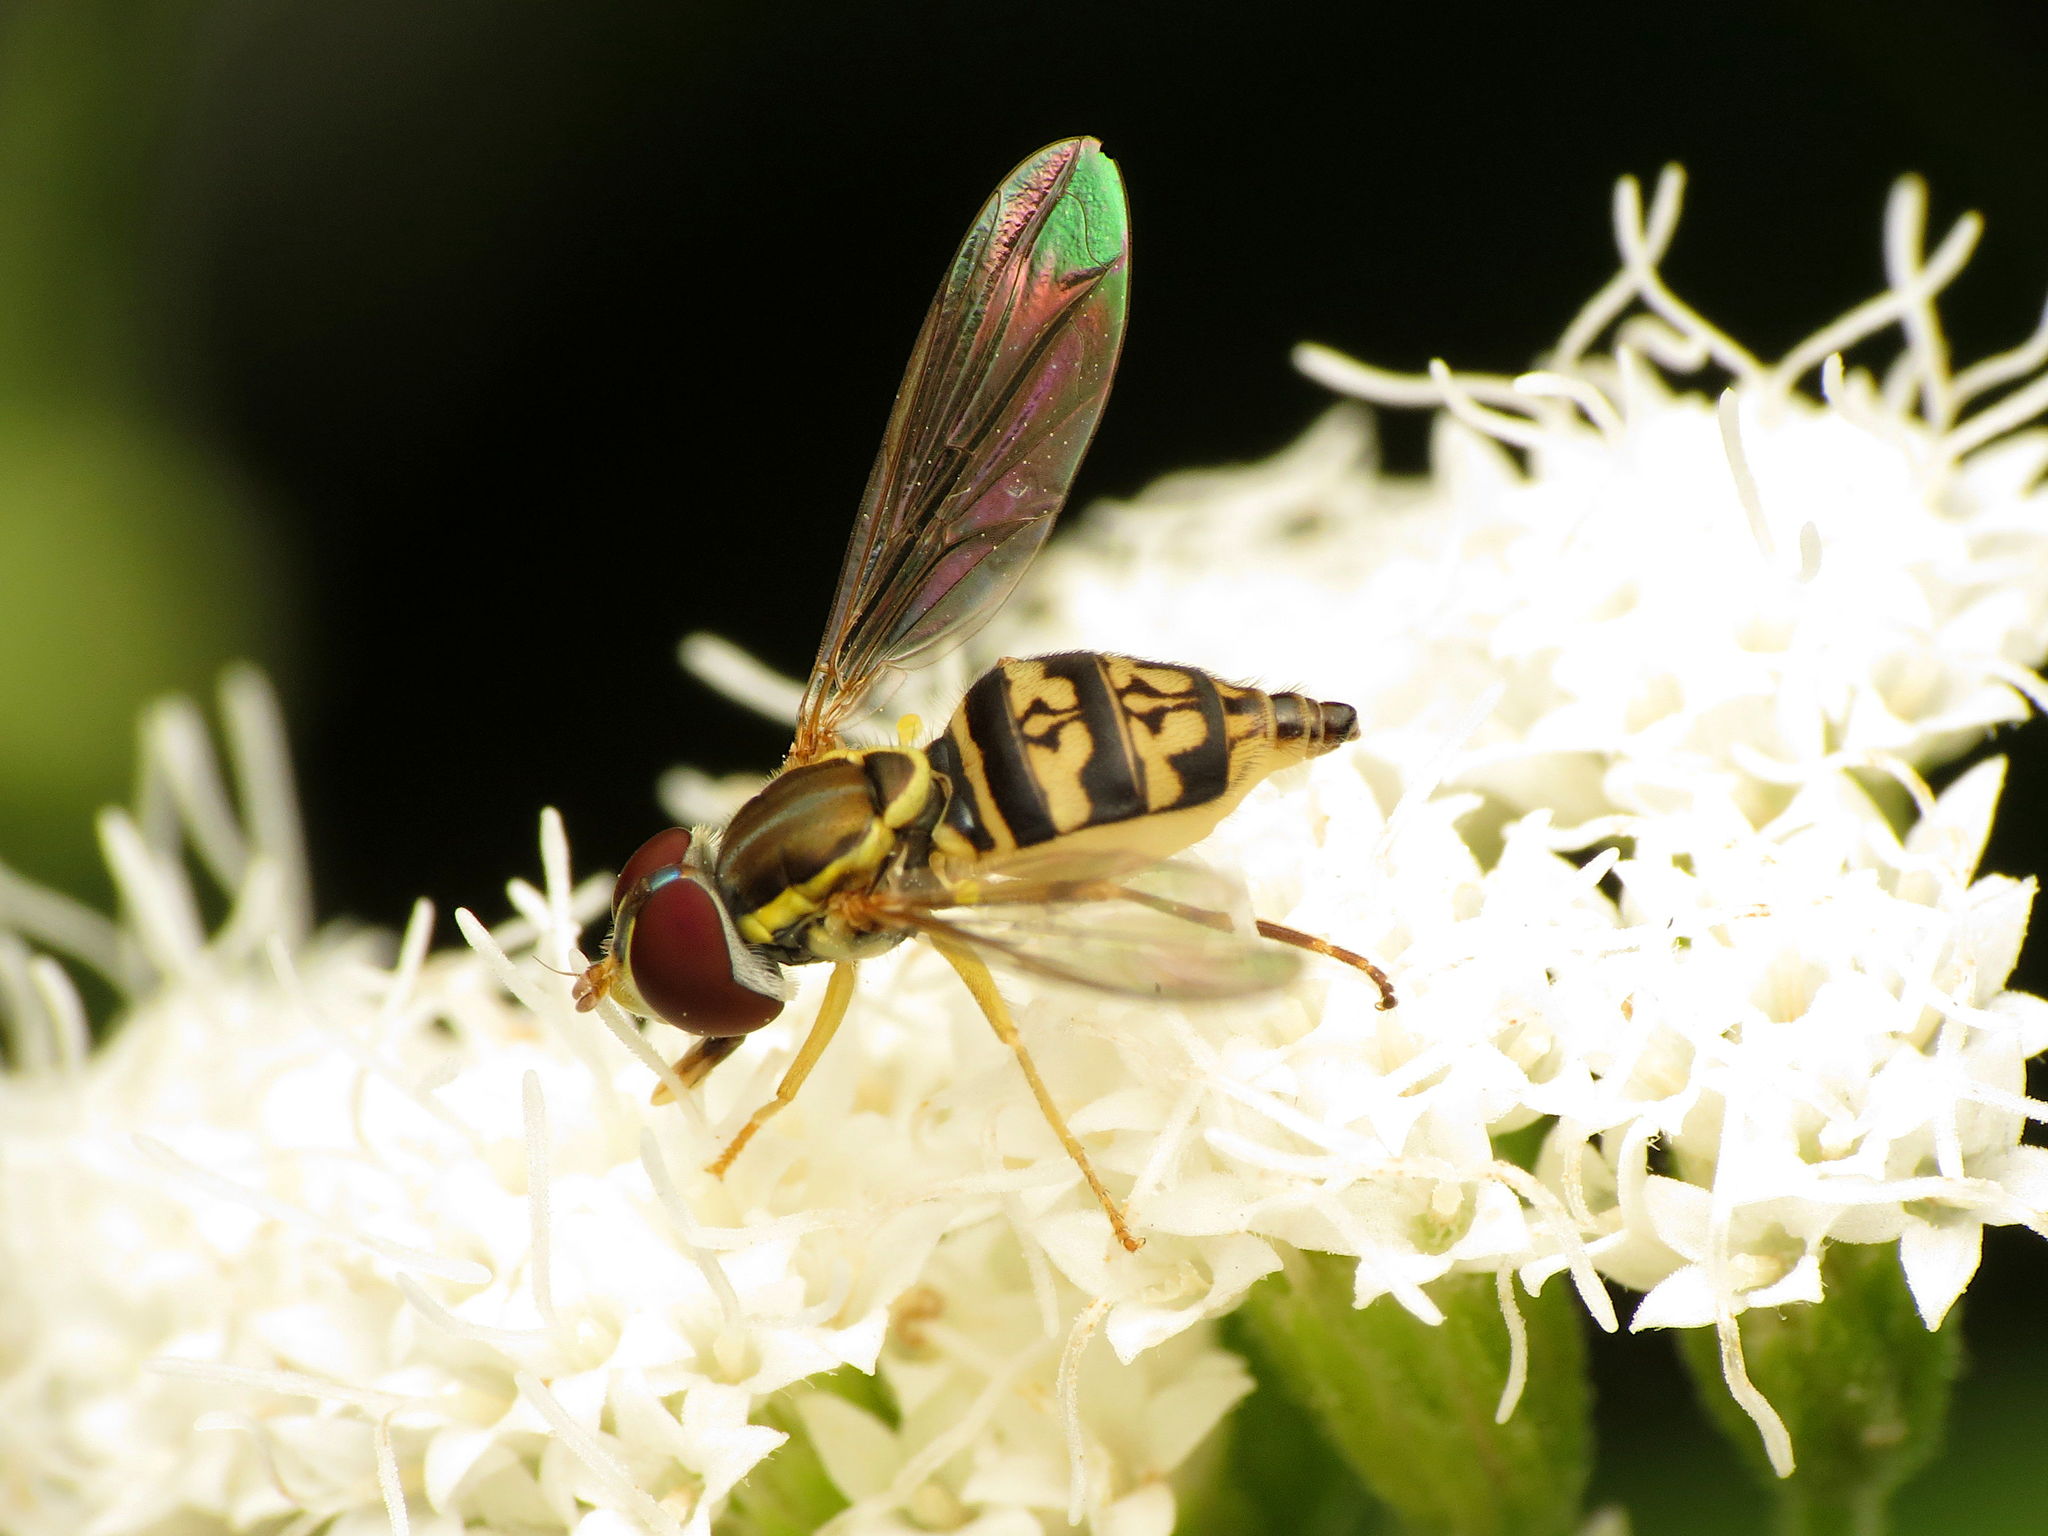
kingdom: Animalia
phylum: Arthropoda
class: Insecta
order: Diptera
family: Syrphidae
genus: Toxomerus
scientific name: Toxomerus geminatus
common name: Eastern calligrapher
